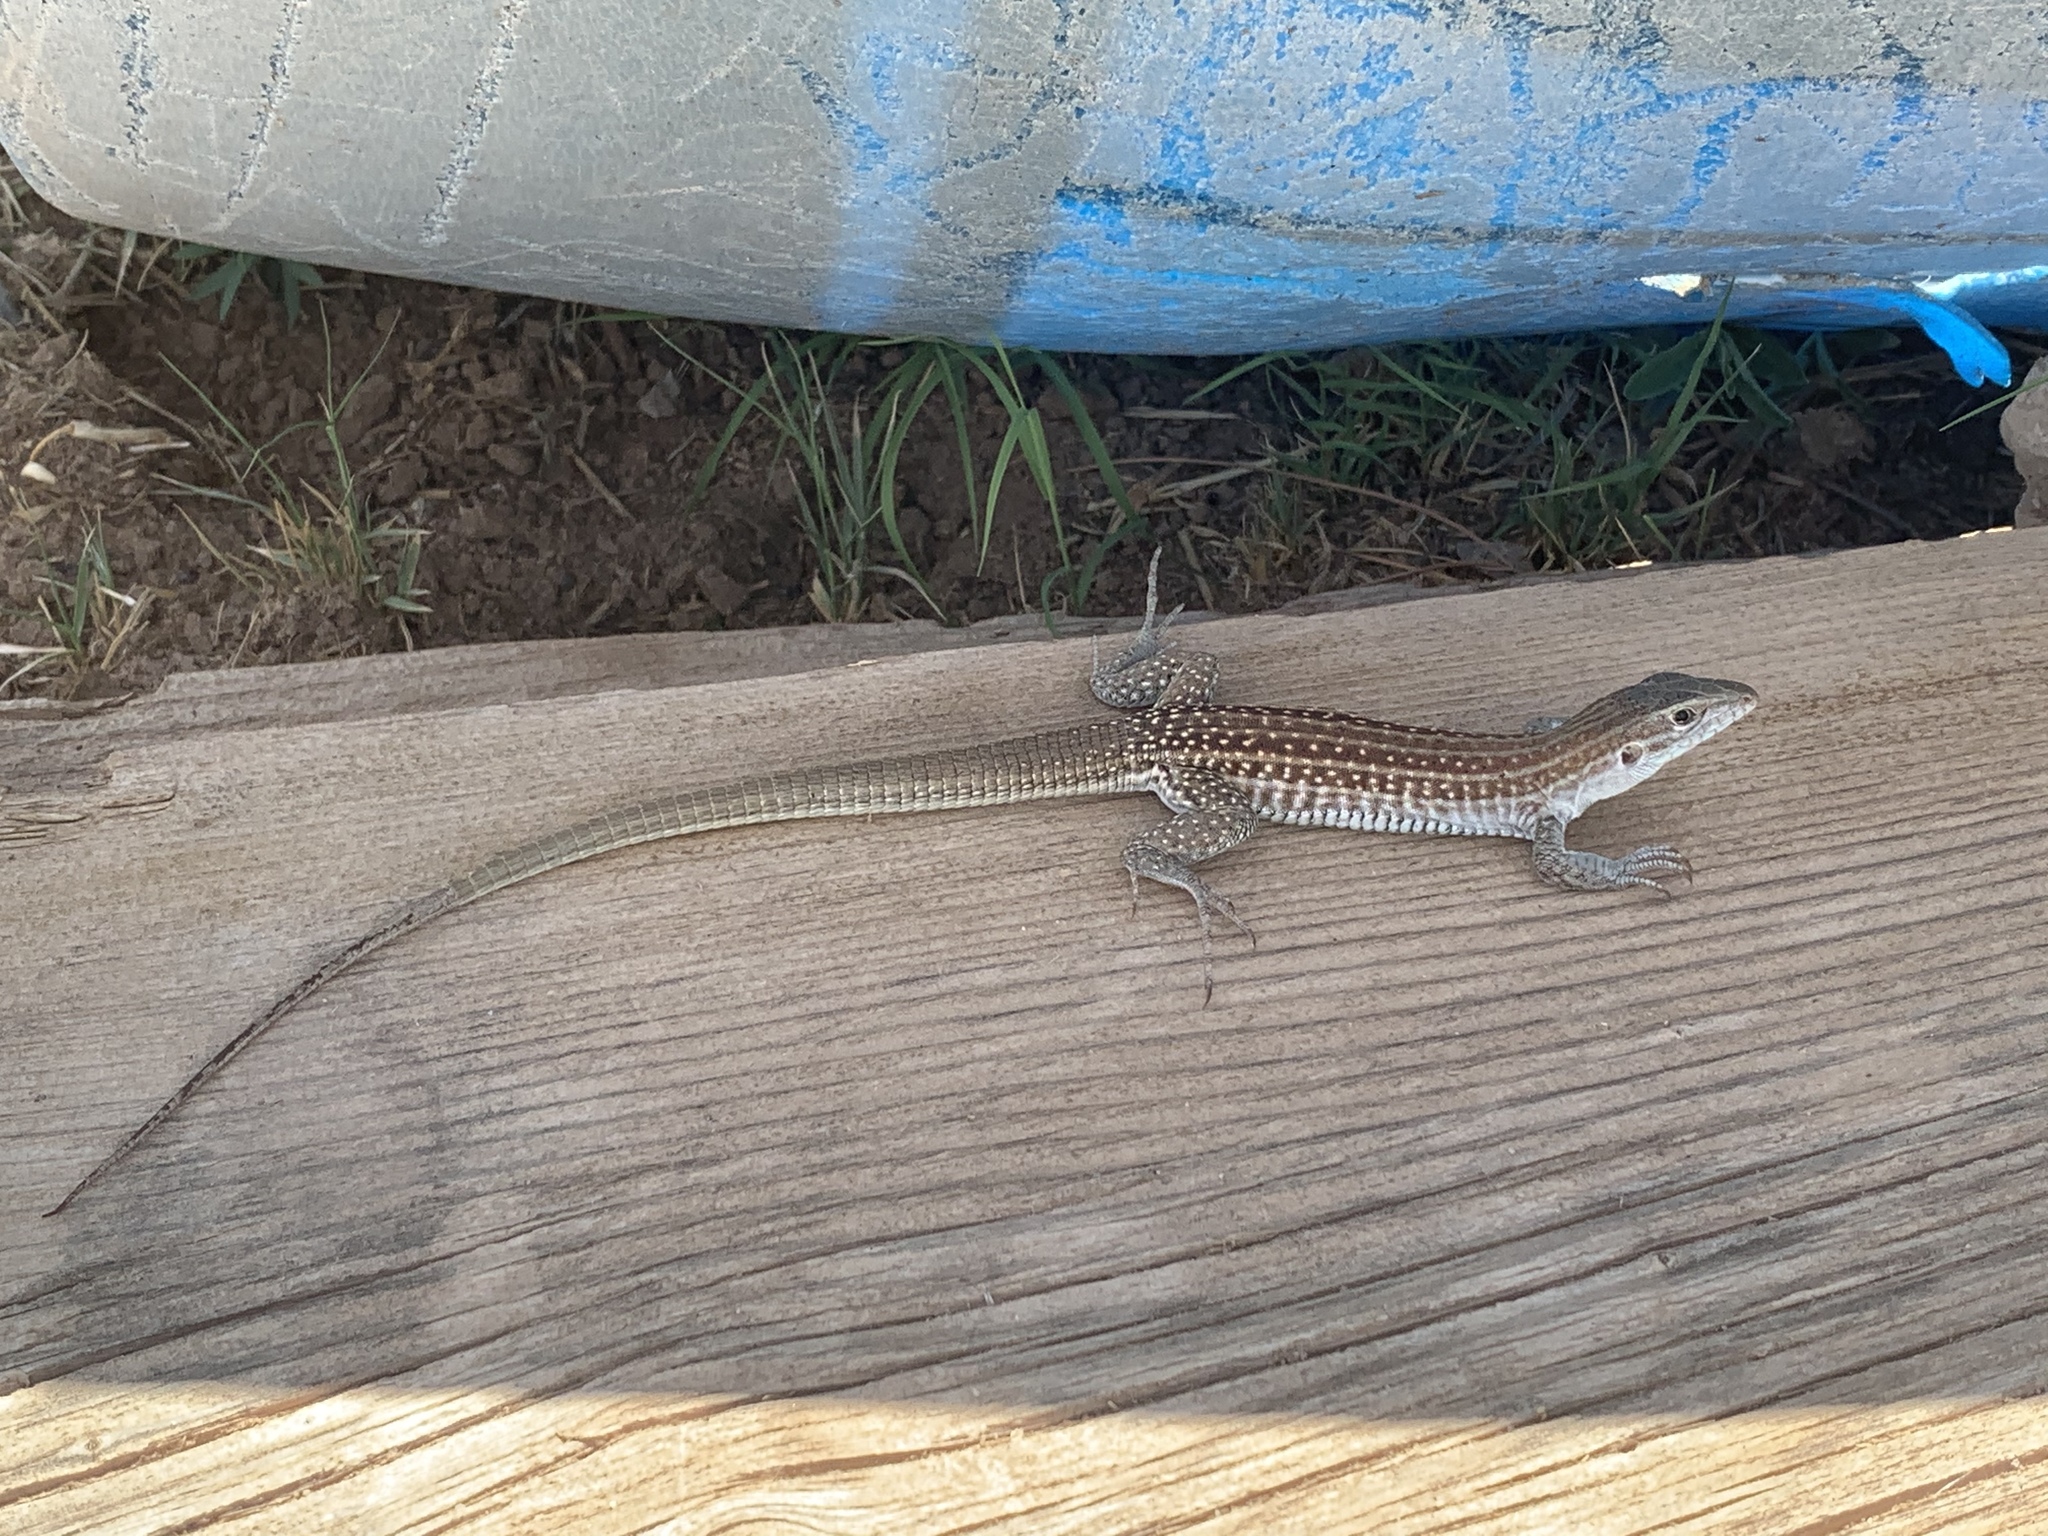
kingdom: Animalia
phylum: Chordata
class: Squamata
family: Teiidae
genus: Aspidoscelis
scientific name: Aspidoscelis exsanguis
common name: Chihuahuan spotted whiptail
